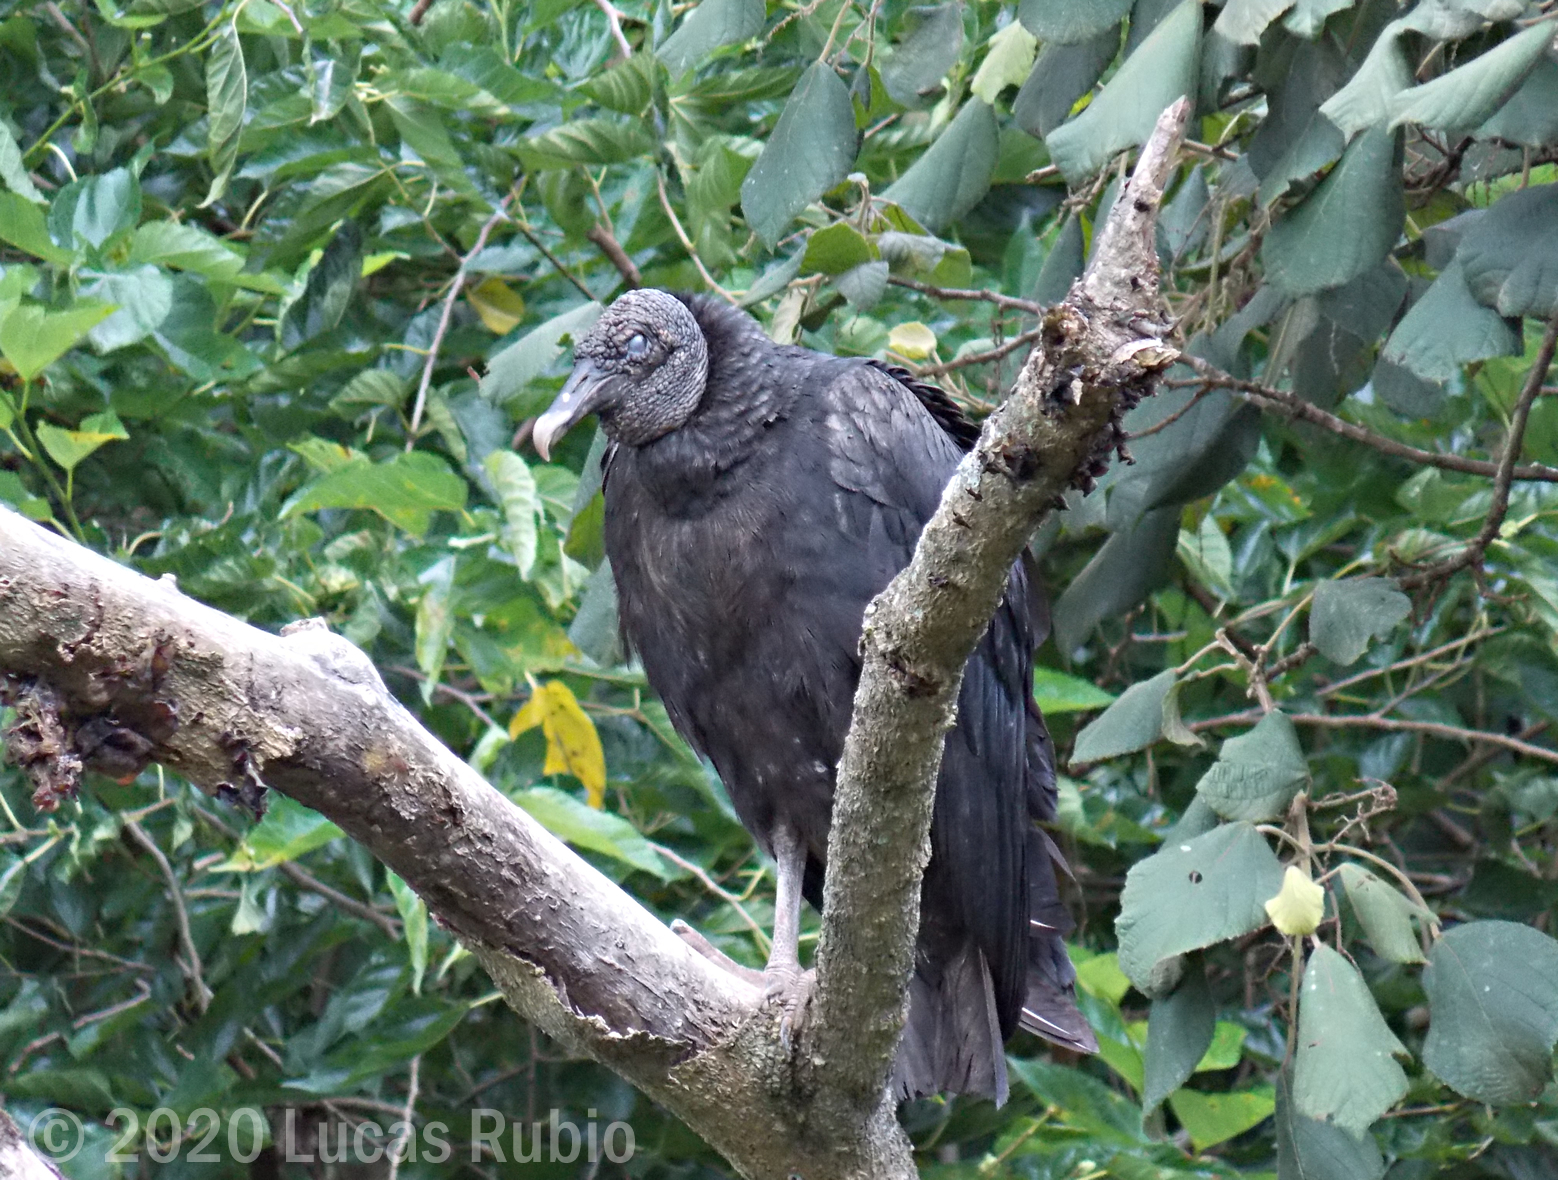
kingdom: Animalia
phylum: Chordata
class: Aves
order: Accipitriformes
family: Cathartidae
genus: Coragyps
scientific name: Coragyps atratus
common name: Black vulture
